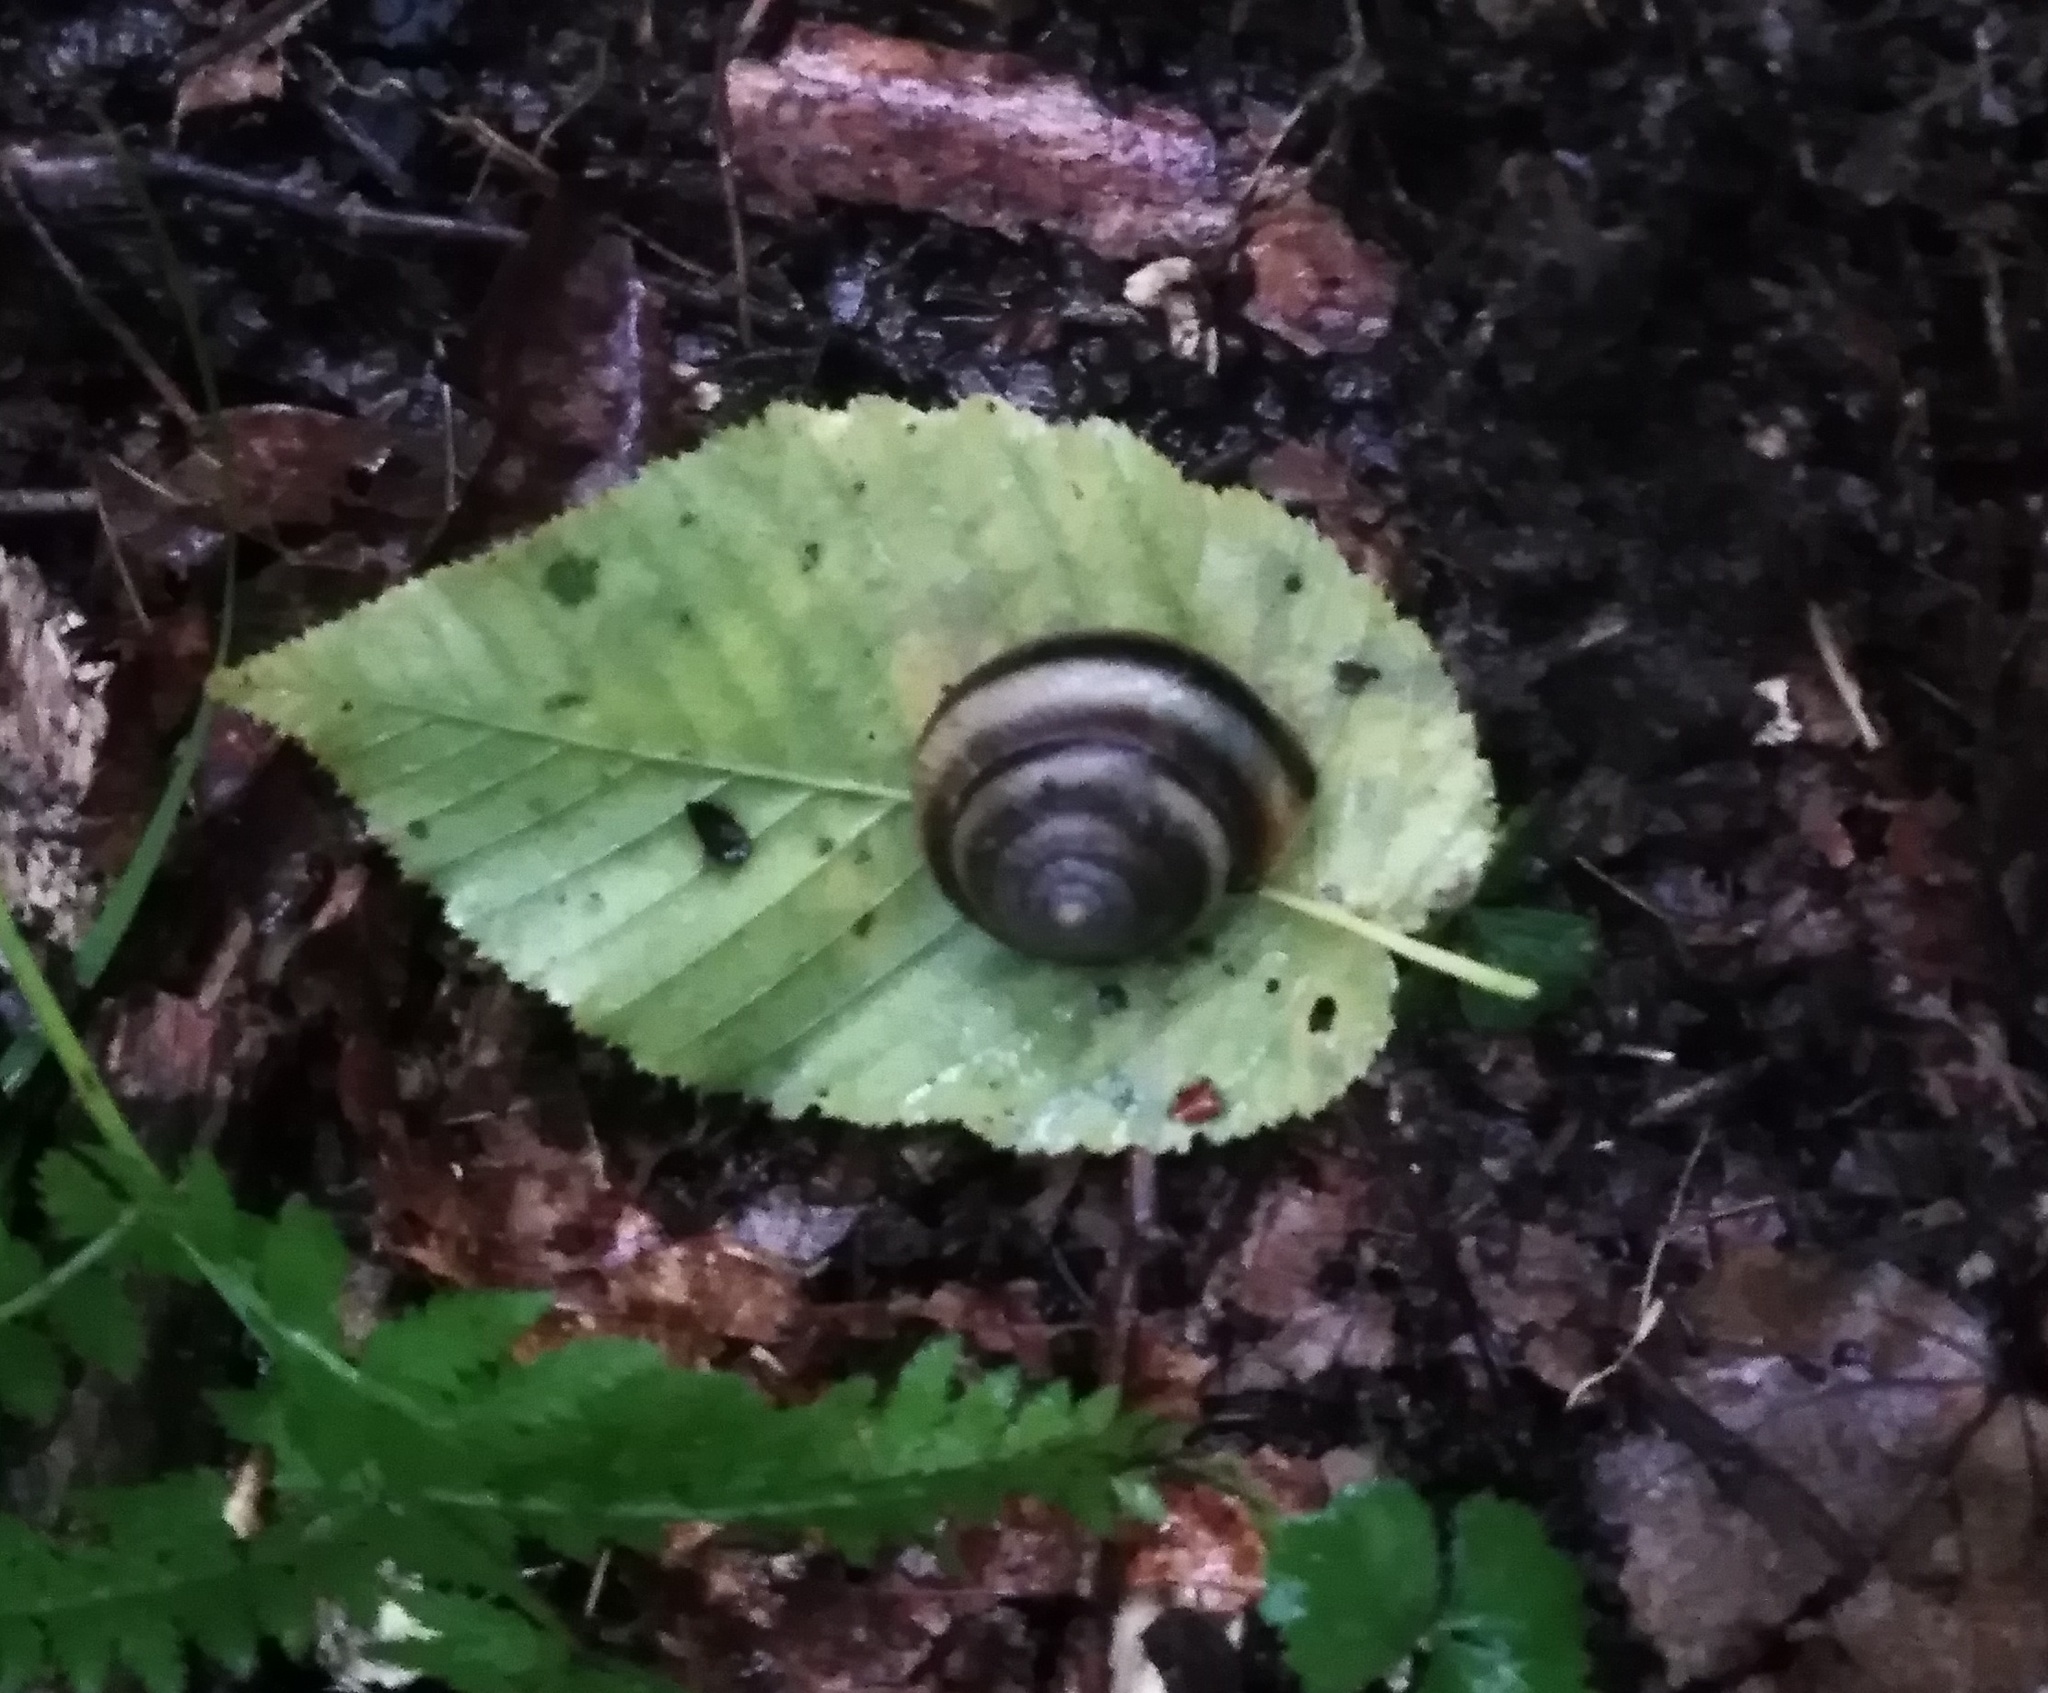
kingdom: Animalia
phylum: Mollusca
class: Gastropoda
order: Stylommatophora
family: Camaenidae
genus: Karaftohelix
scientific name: Karaftohelix maackii
